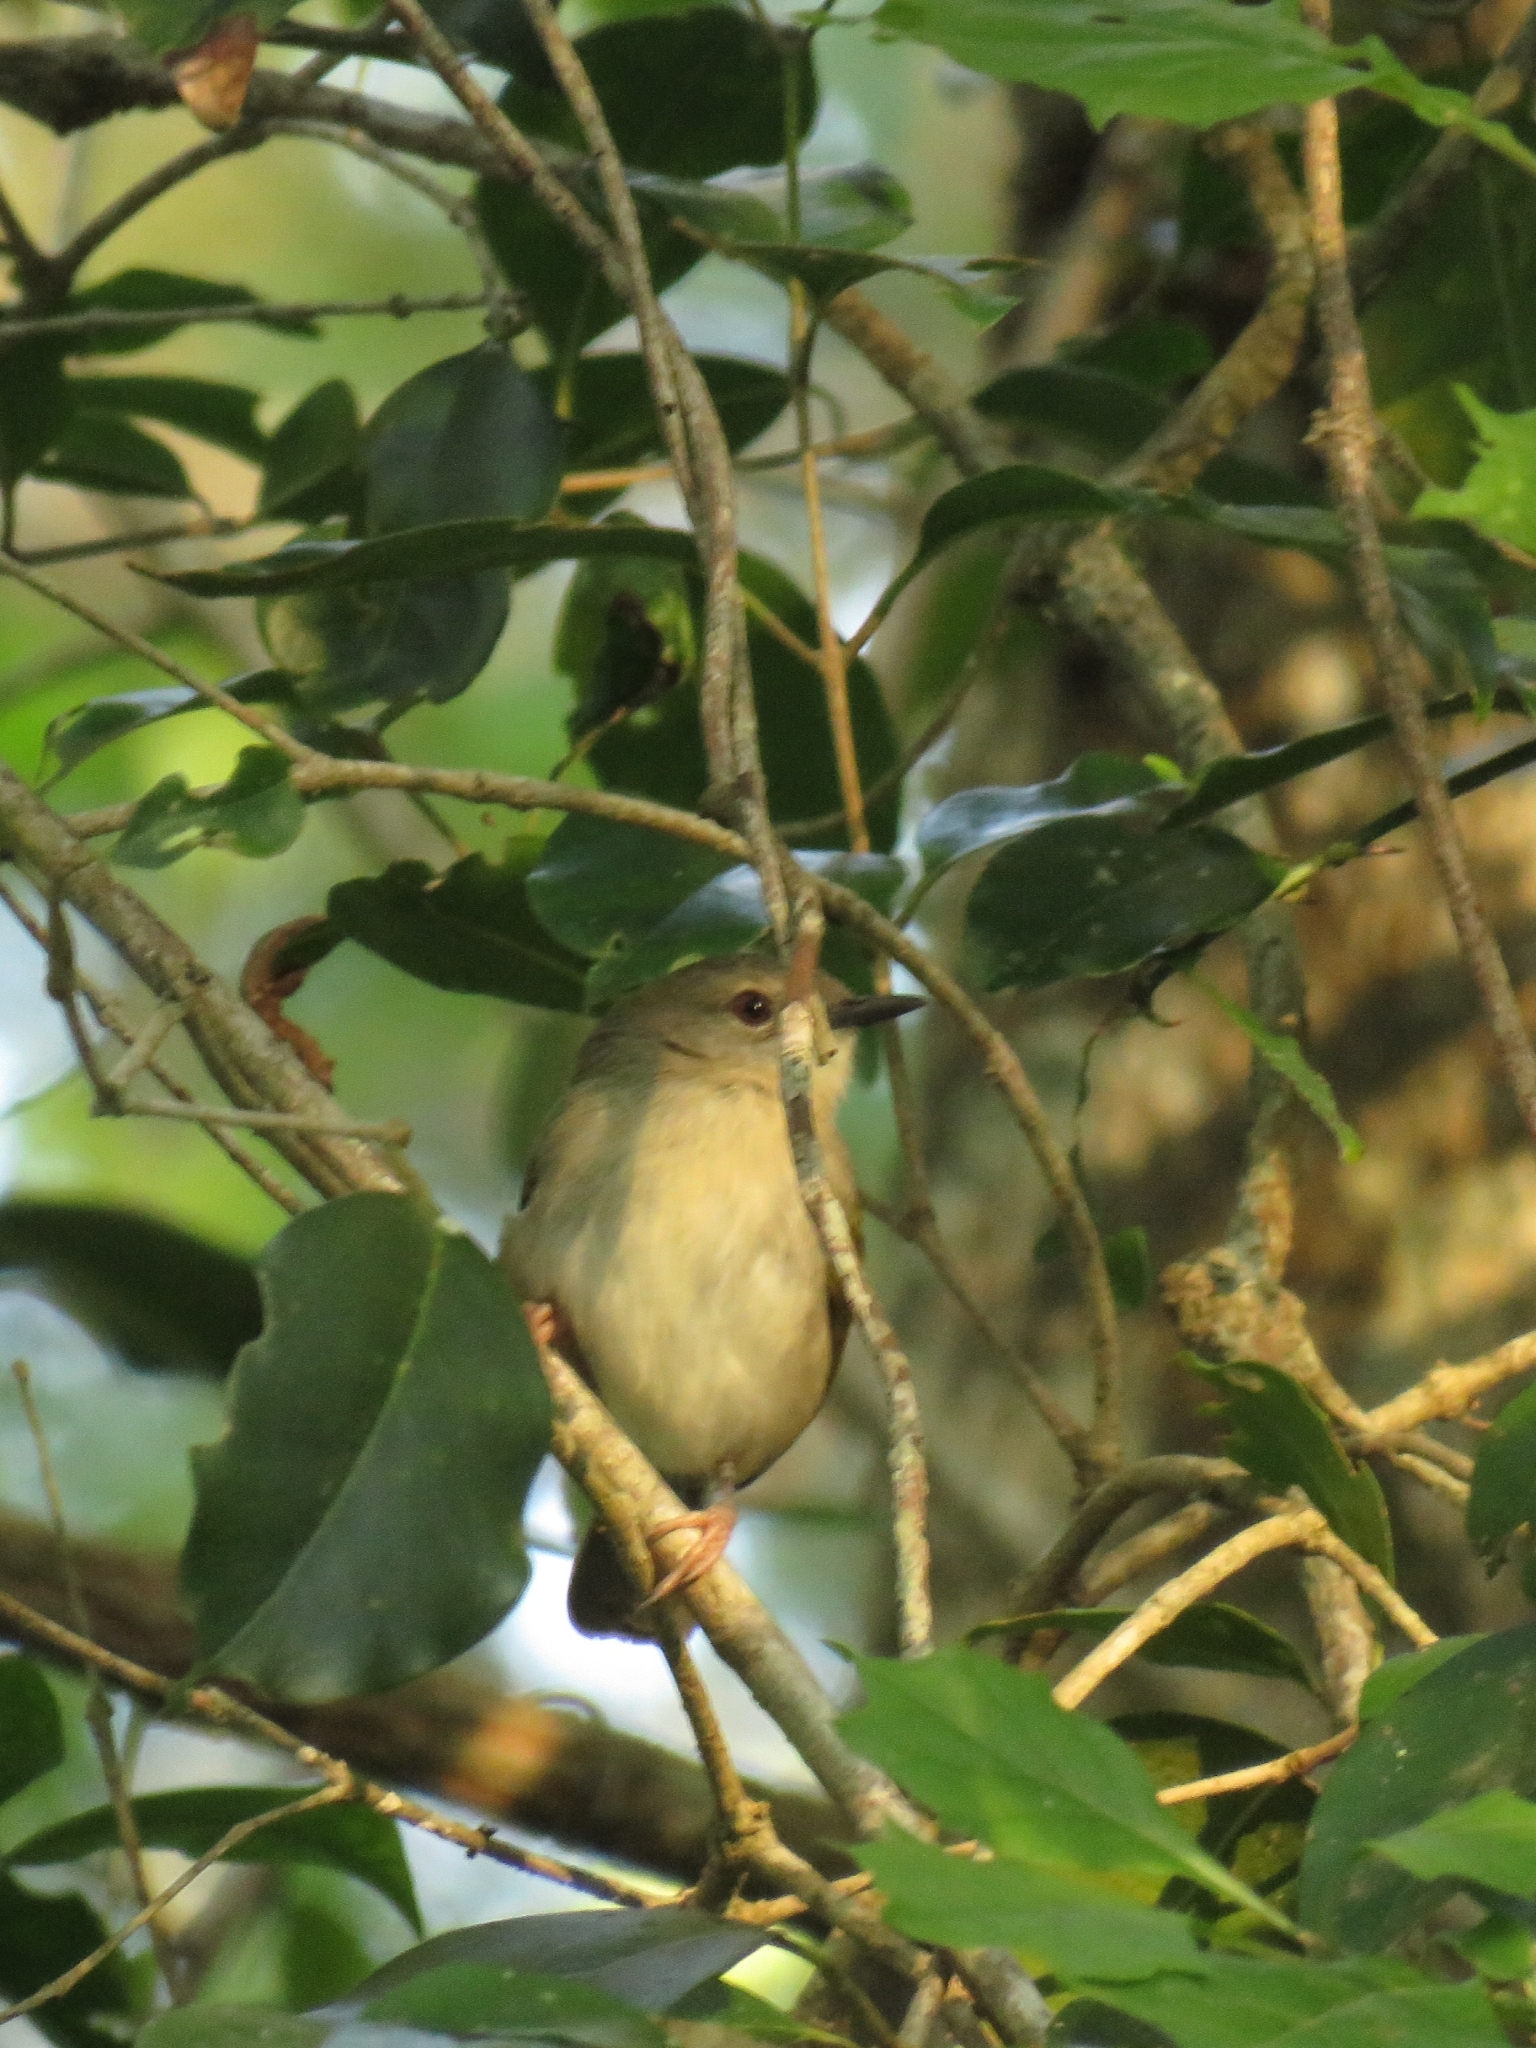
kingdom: Animalia
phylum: Chordata
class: Aves
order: Passeriformes
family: Cisticolidae
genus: Camaroptera
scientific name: Camaroptera brachyura
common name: Green-backed camaroptera
